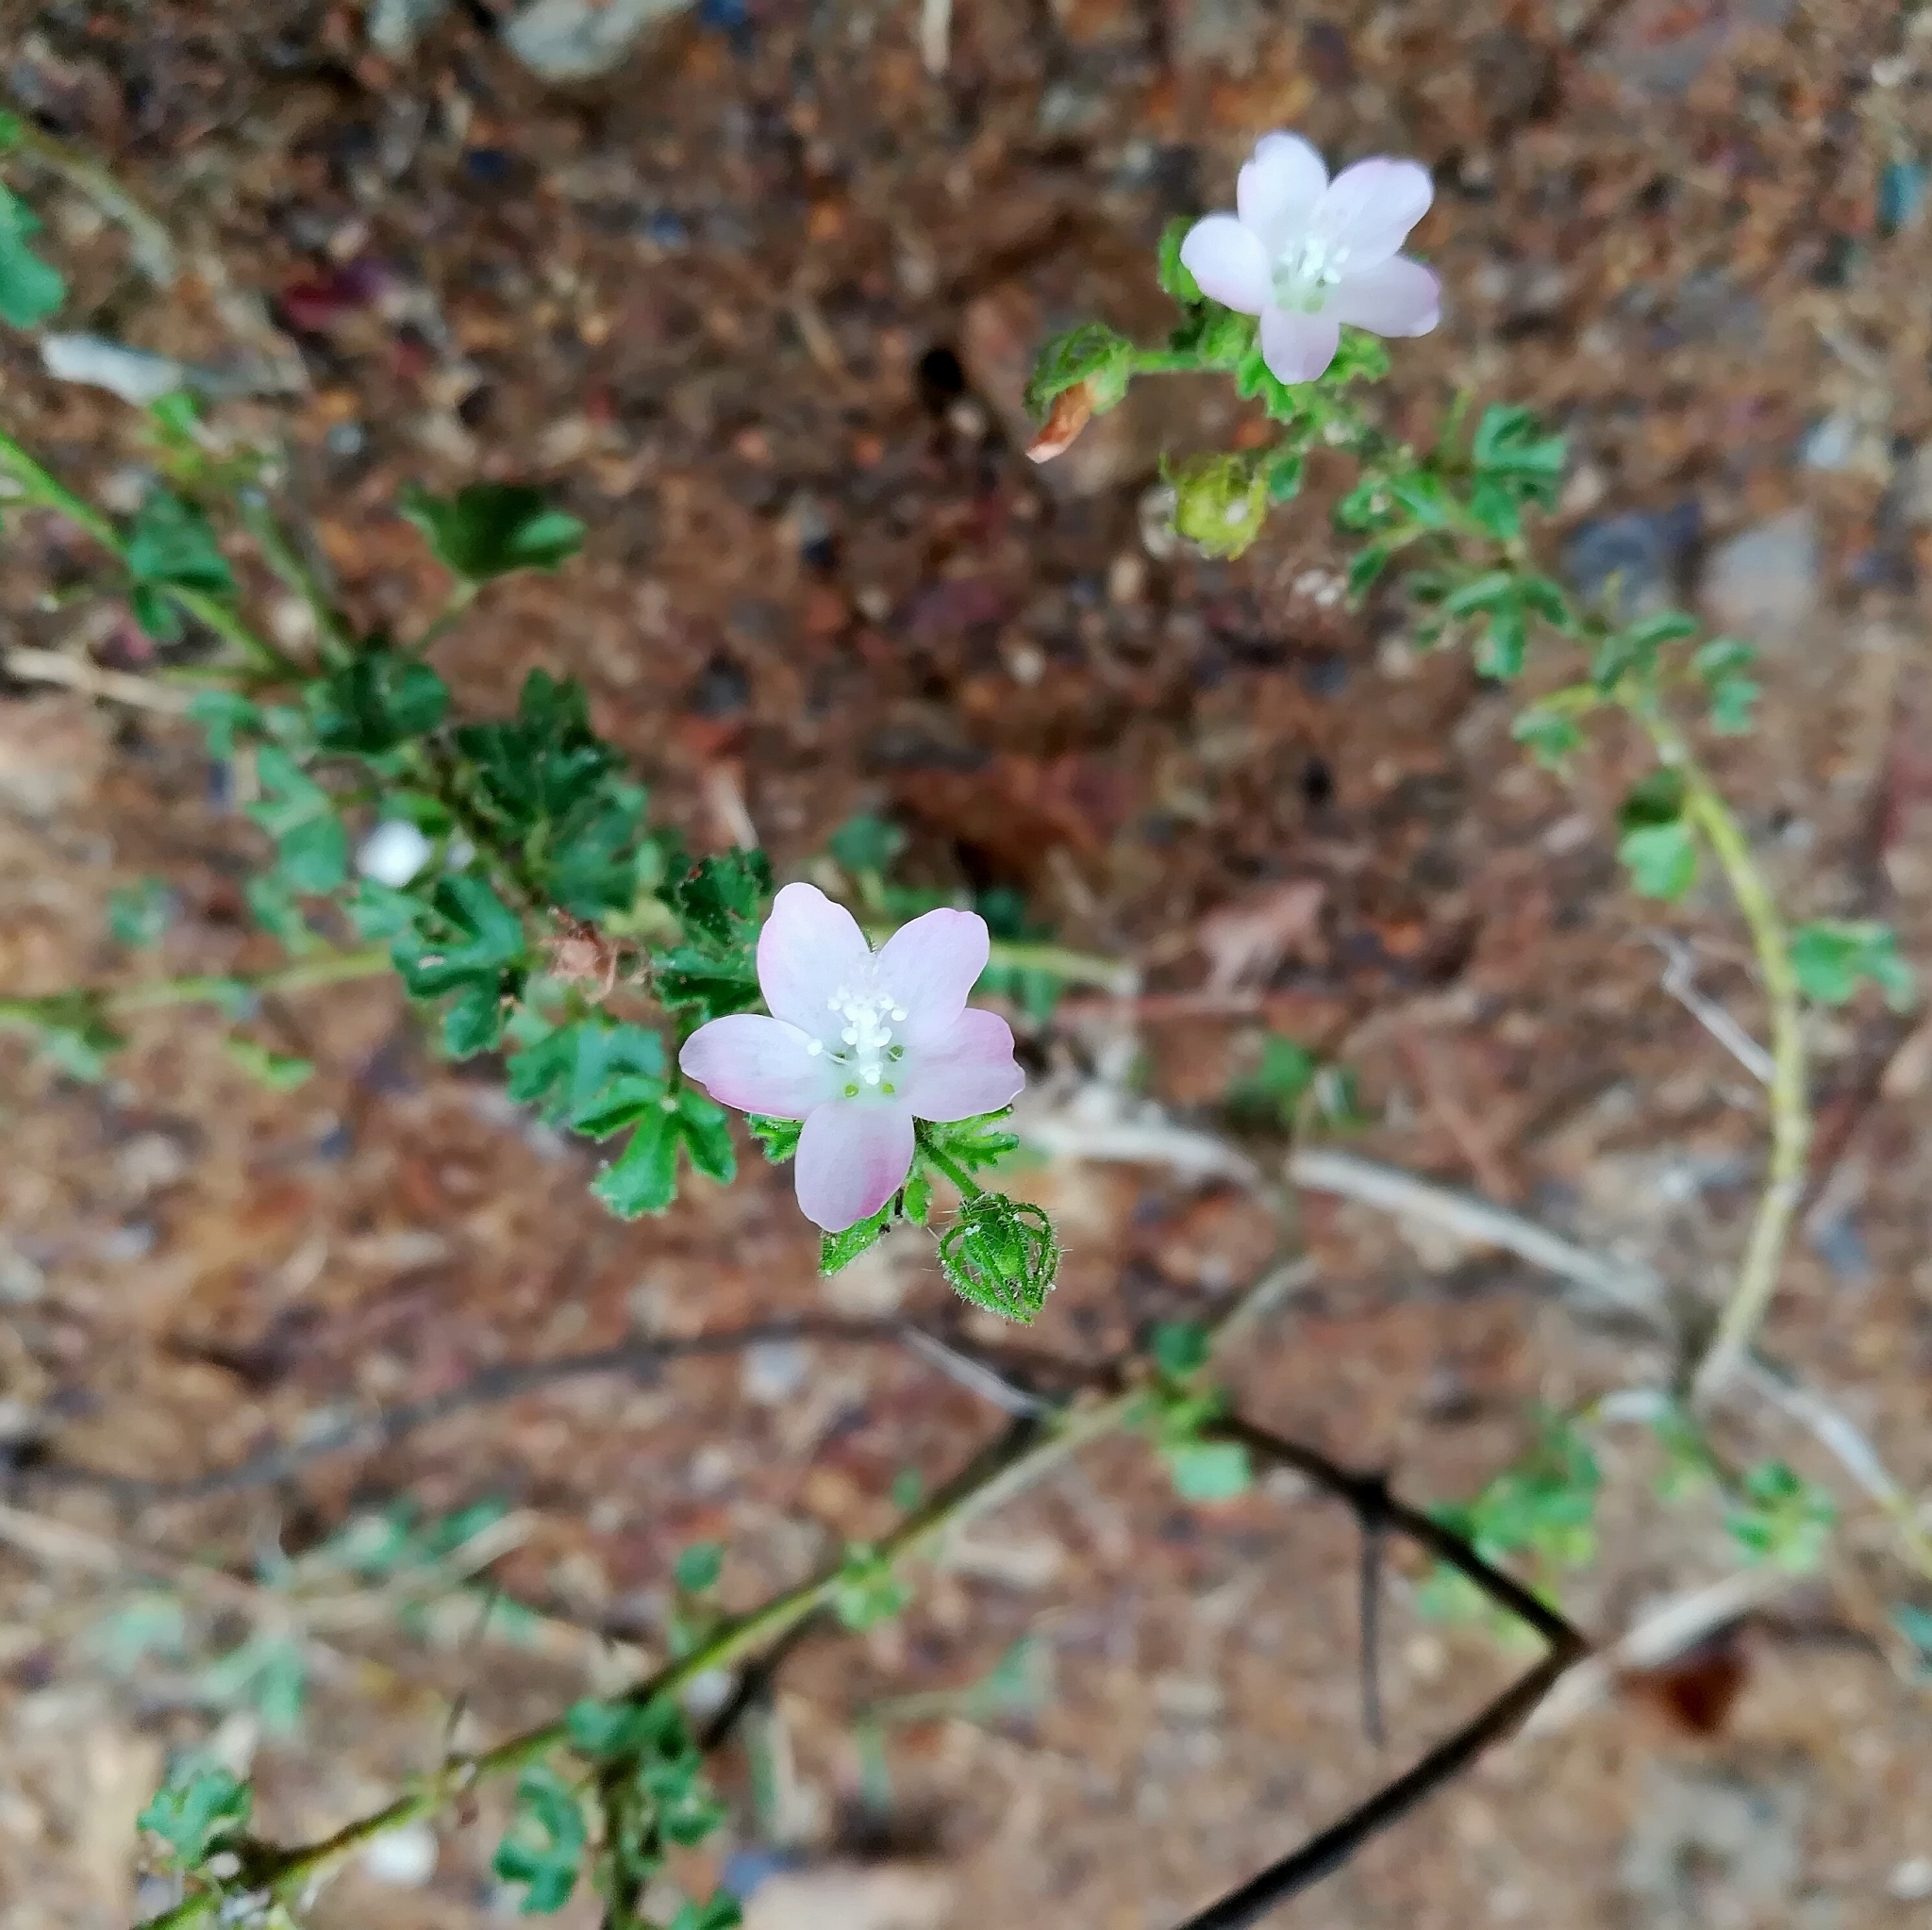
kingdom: Plantae
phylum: Tracheophyta
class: Magnoliopsida
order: Malvales
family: Malvaceae
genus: Pavonia
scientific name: Pavonia zeylanica
